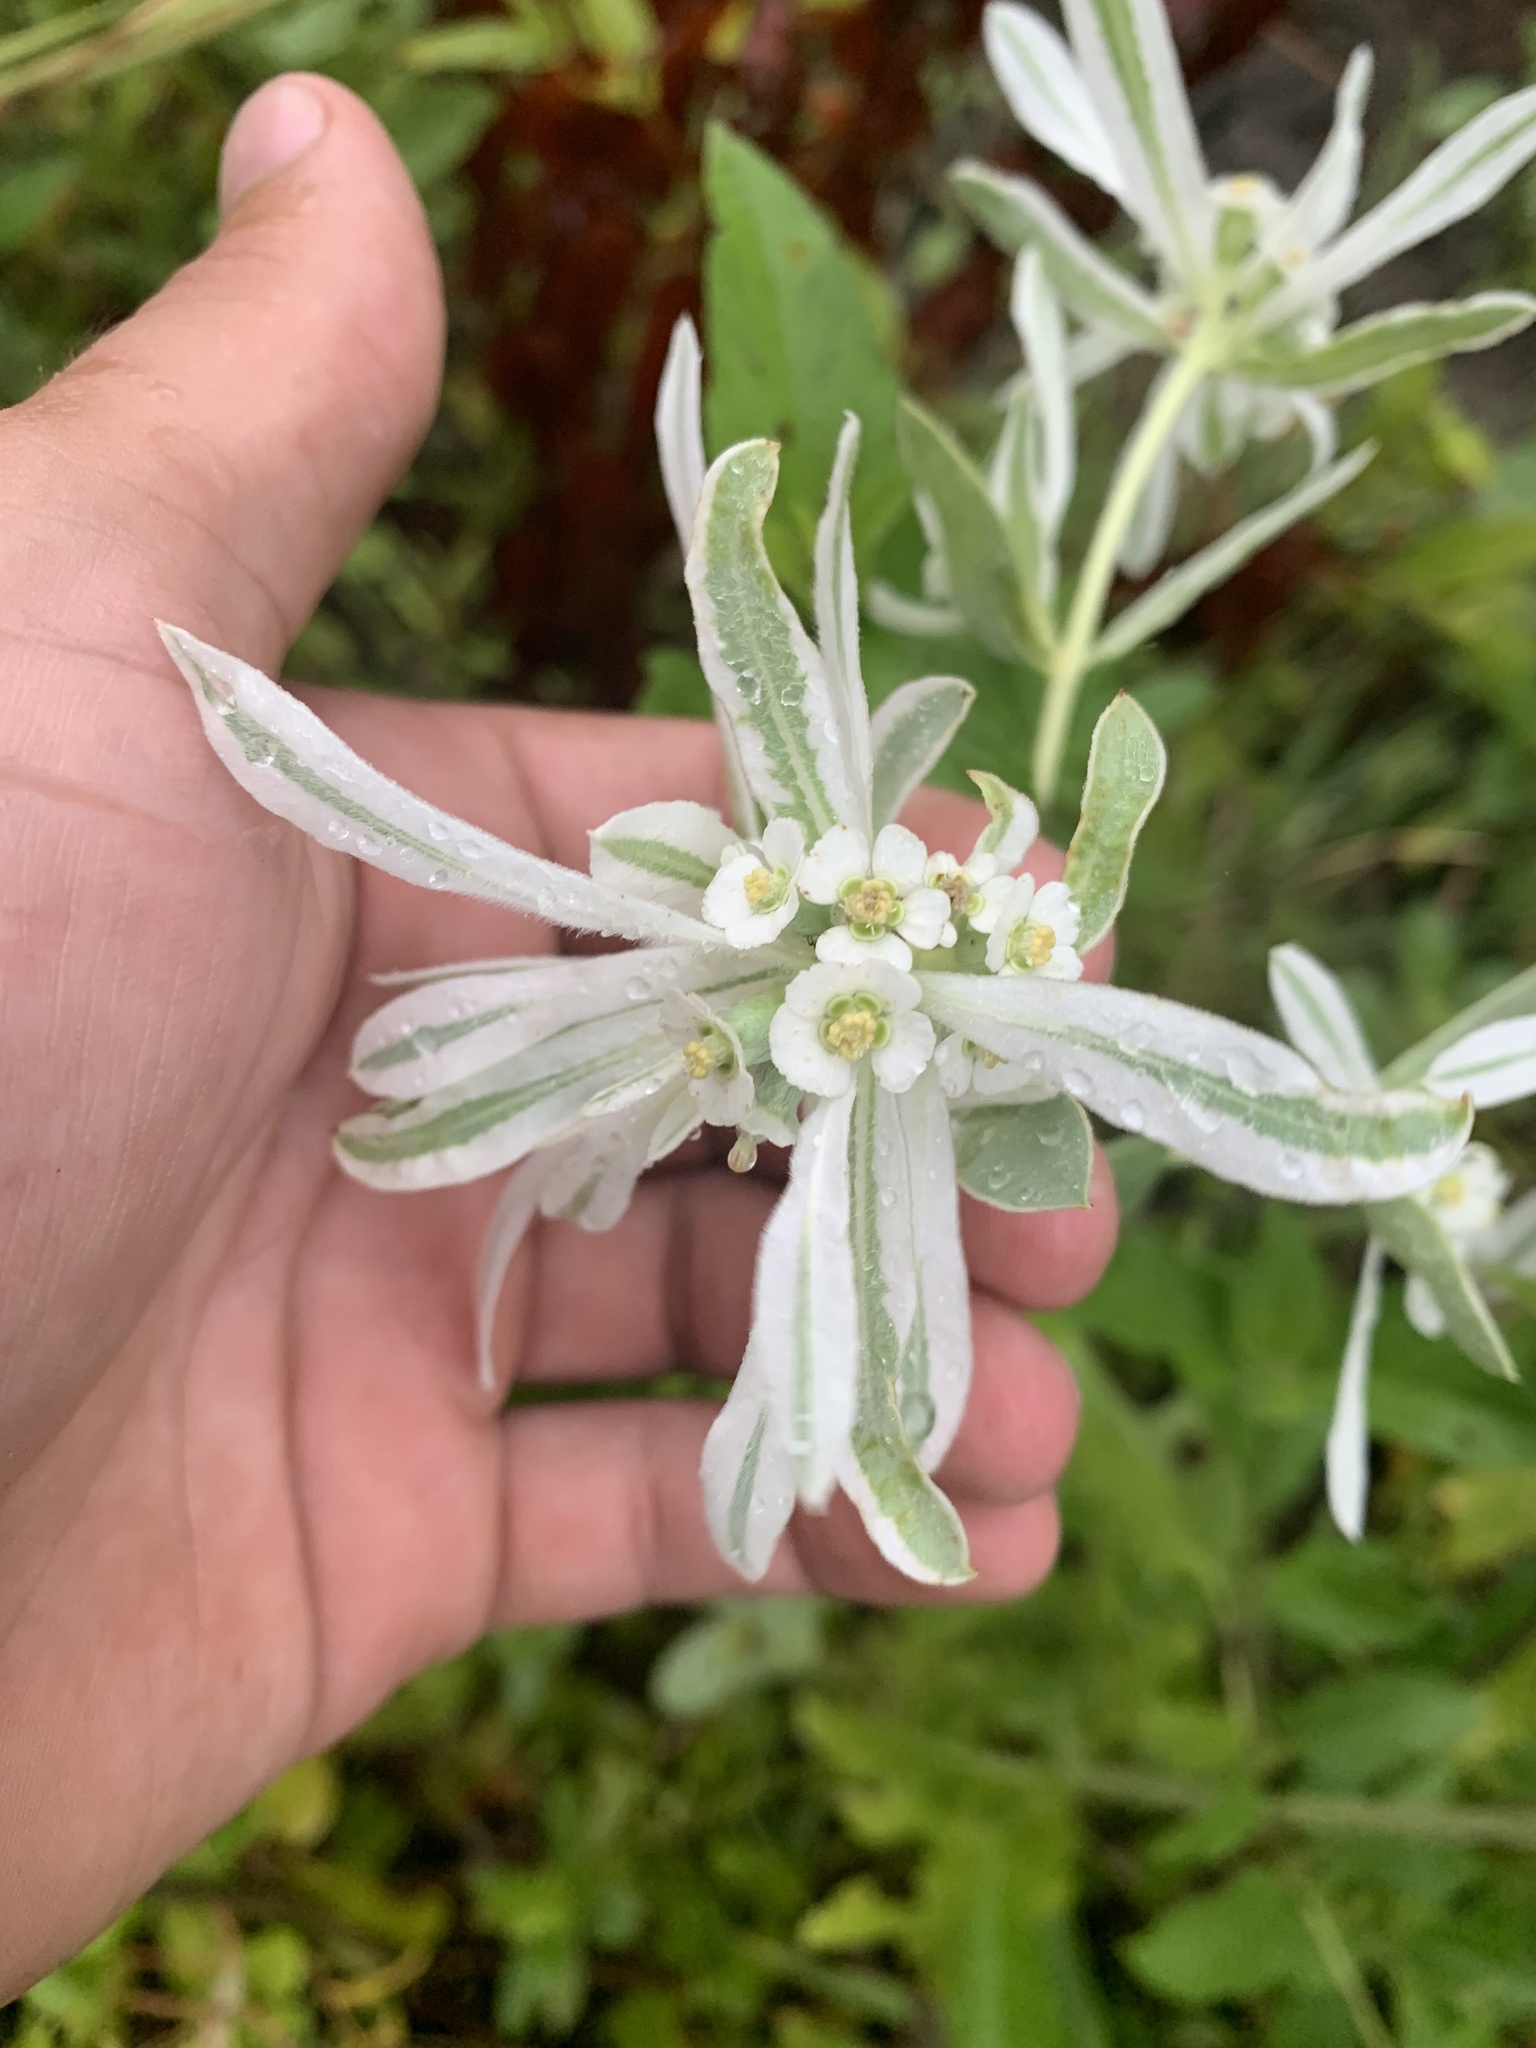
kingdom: Plantae
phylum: Tracheophyta
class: Magnoliopsida
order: Malpighiales
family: Euphorbiaceae
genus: Euphorbia
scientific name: Euphorbia bicolor
